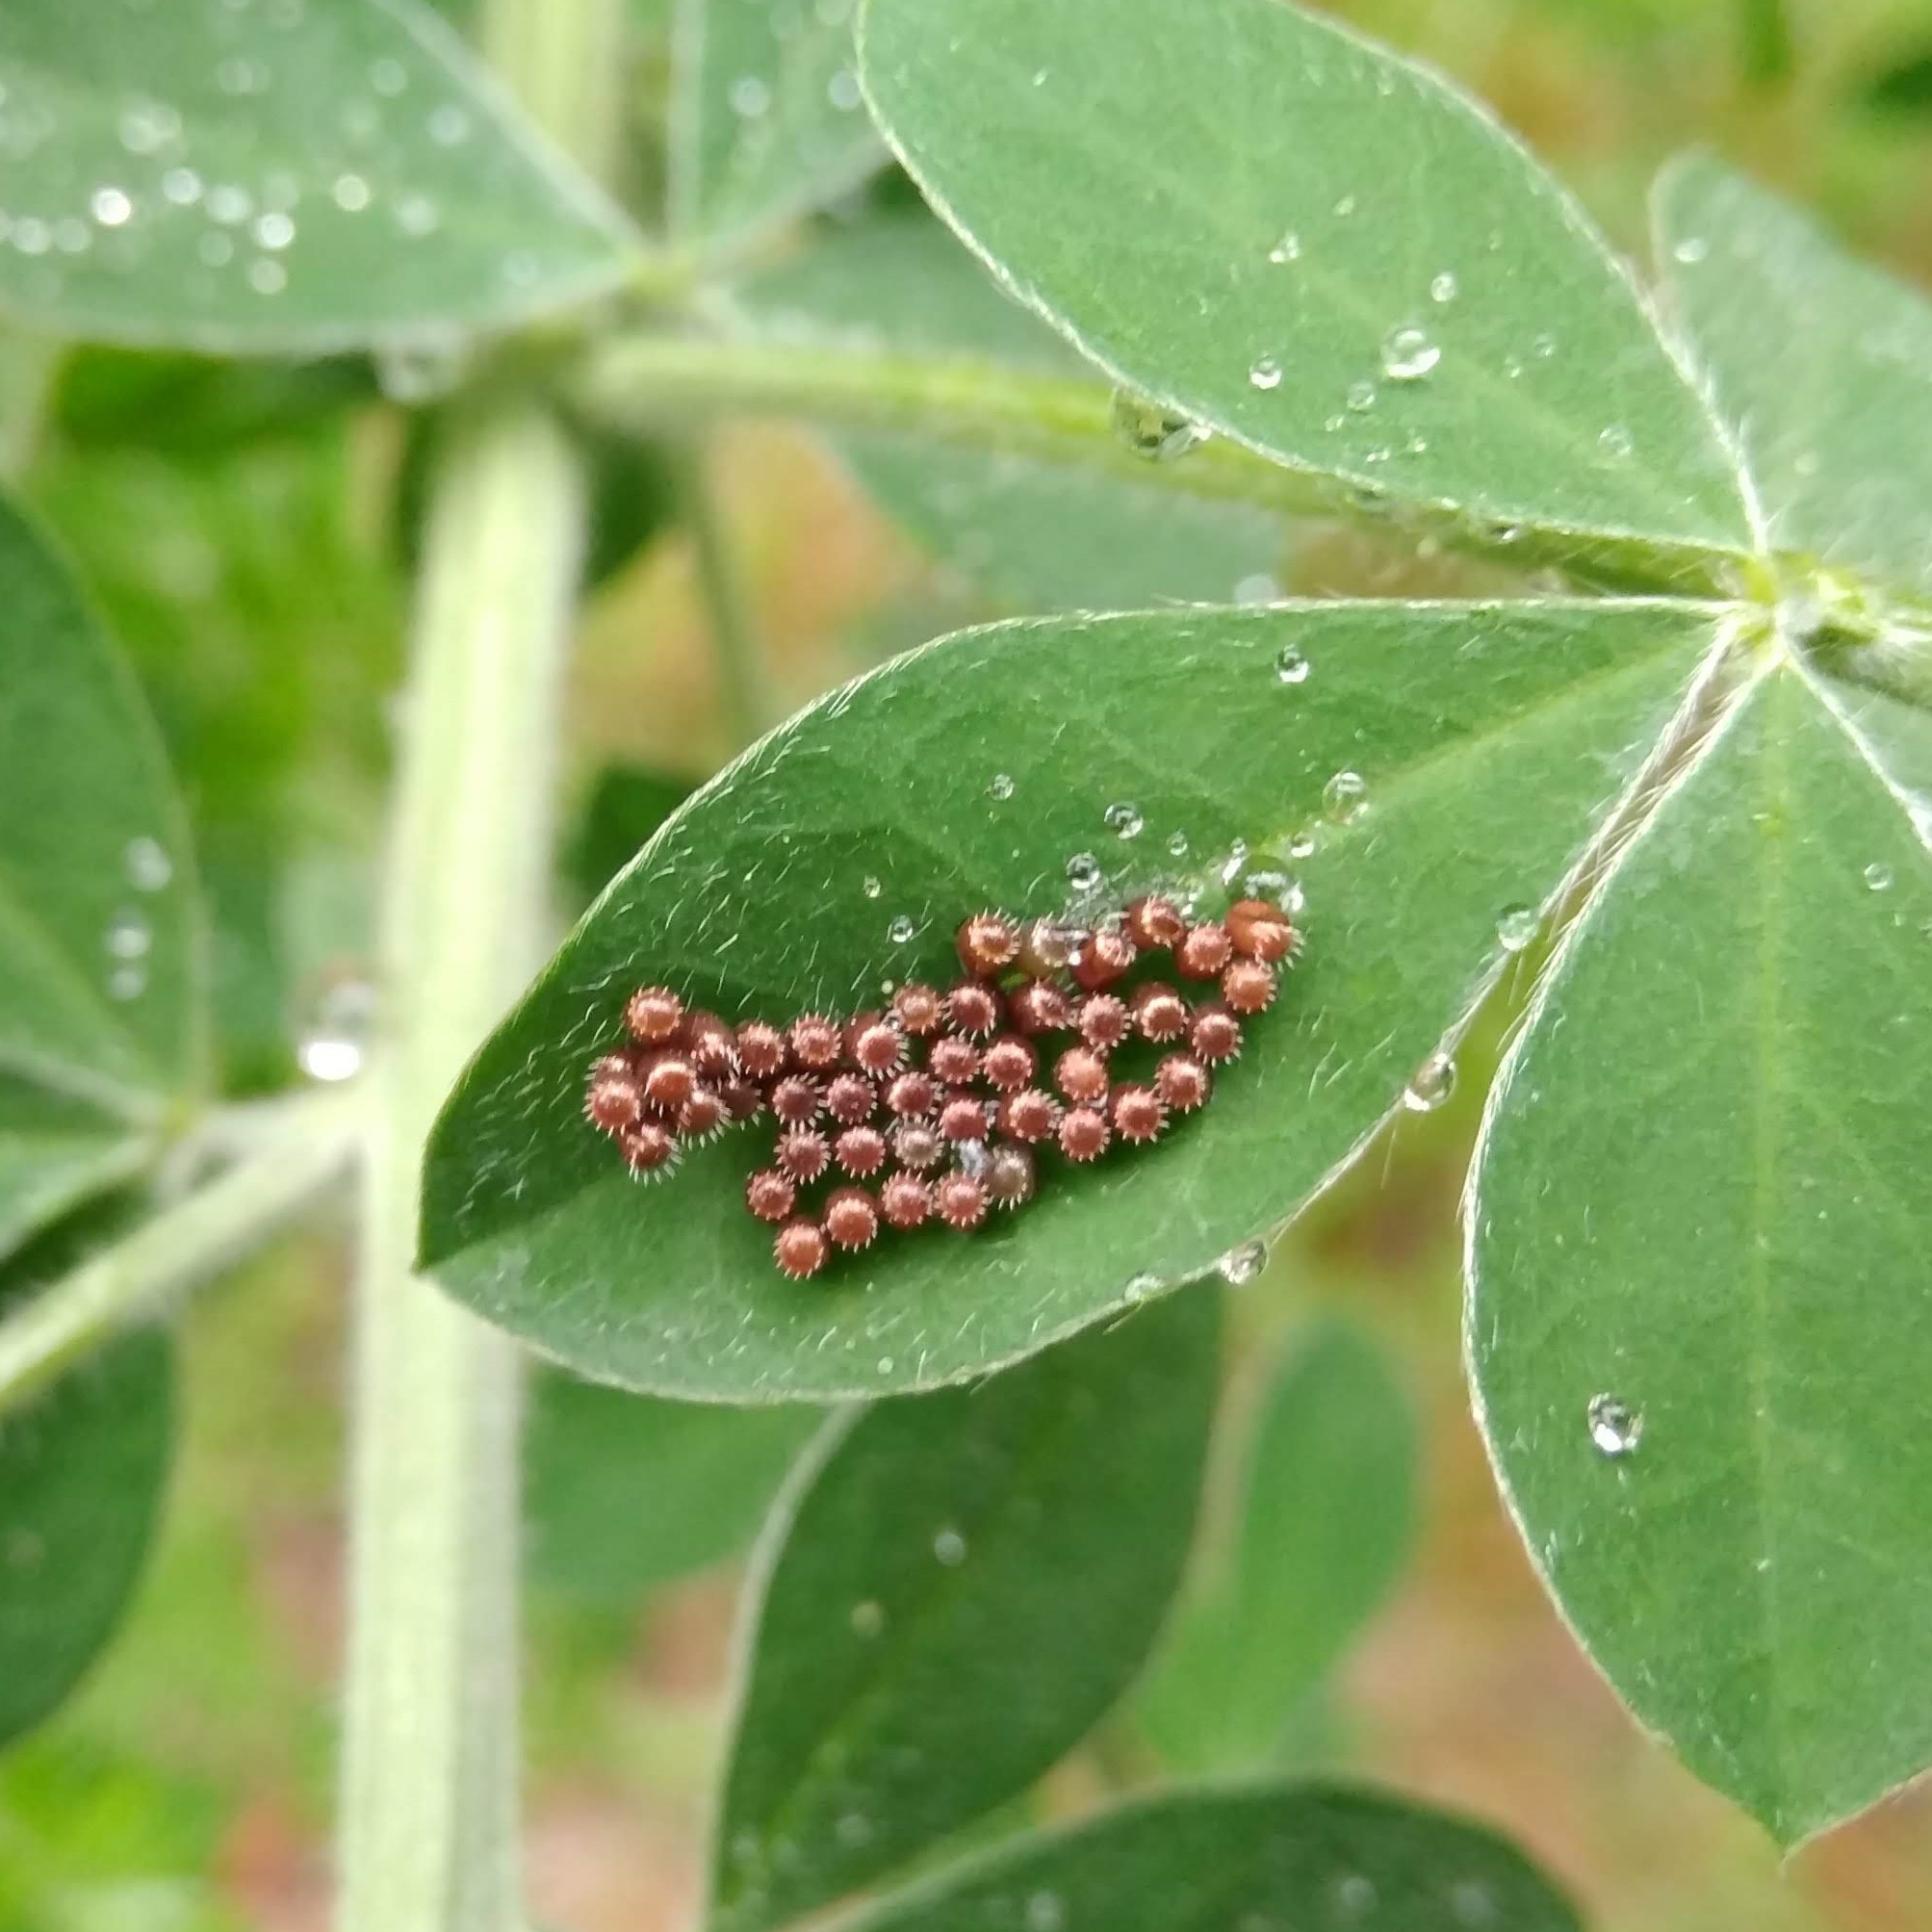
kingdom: Animalia
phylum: Arthropoda
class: Insecta
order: Hemiptera
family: Pentatomidae
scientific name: Pentatomidae
